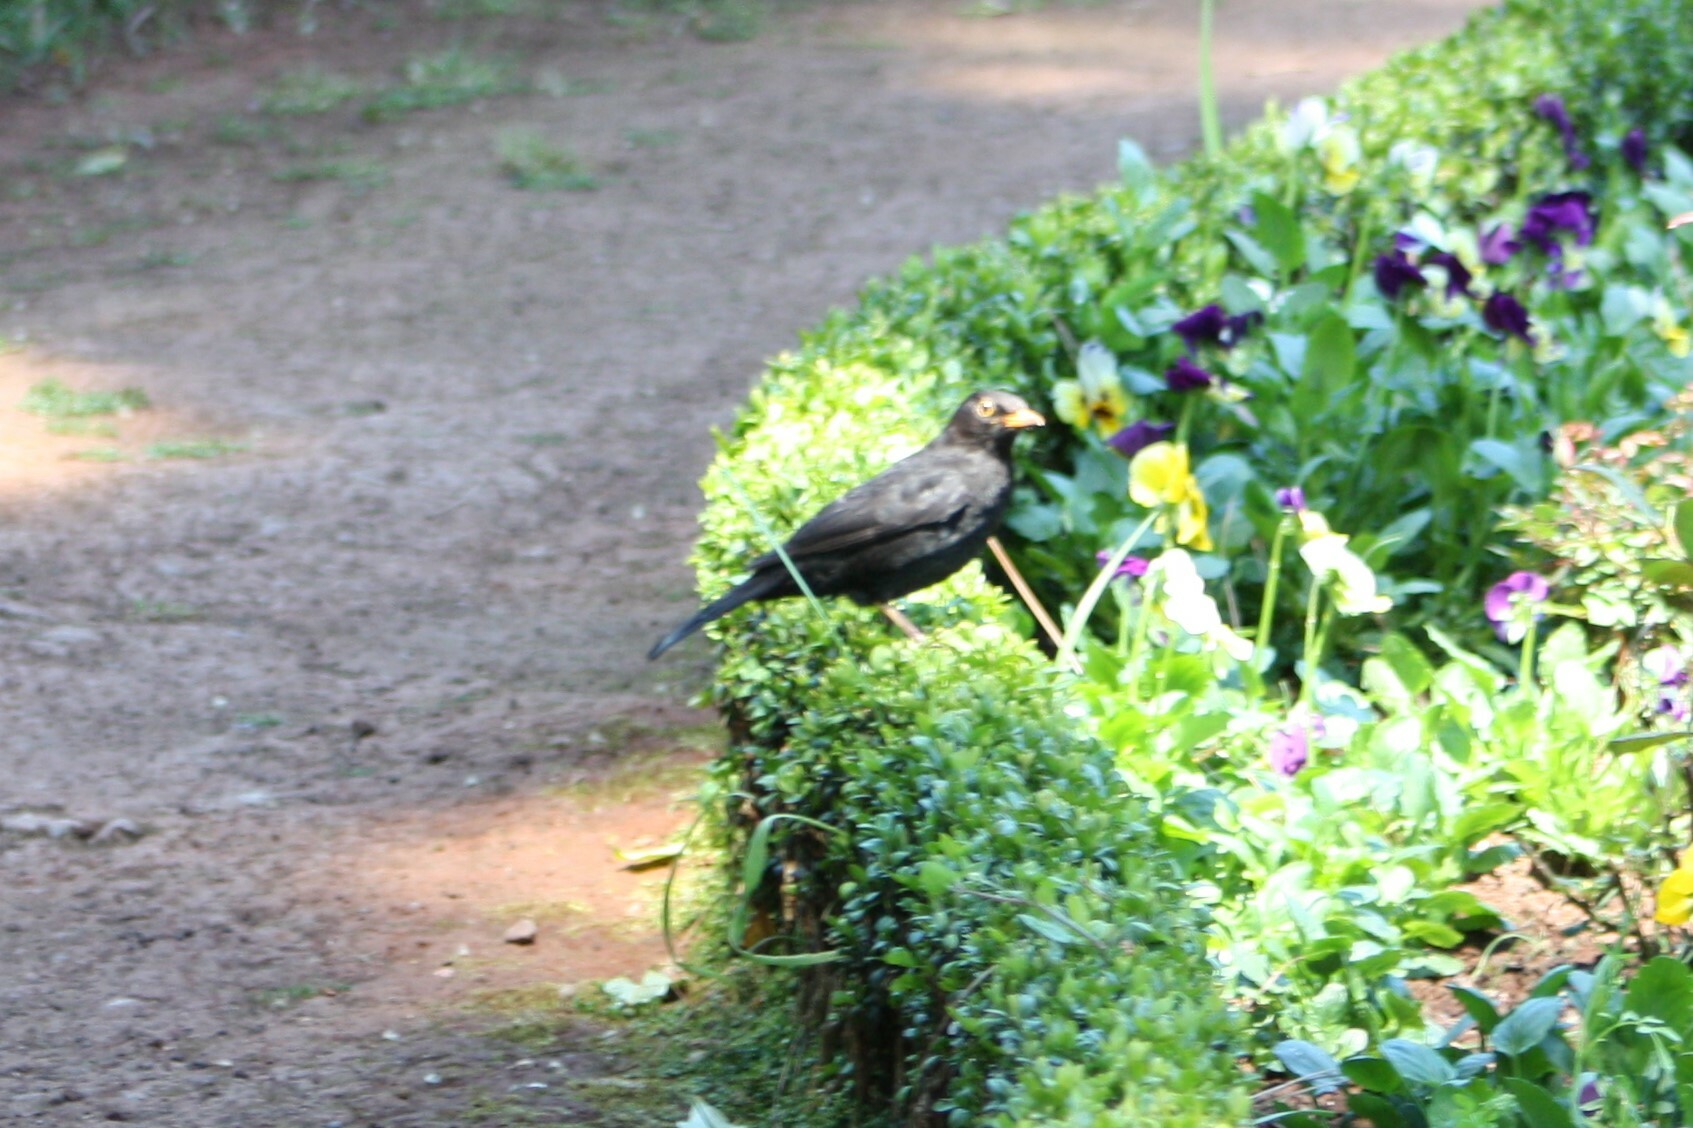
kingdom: Animalia
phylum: Chordata
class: Aves
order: Passeriformes
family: Turdidae
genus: Turdus
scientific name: Turdus merula
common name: Common blackbird
